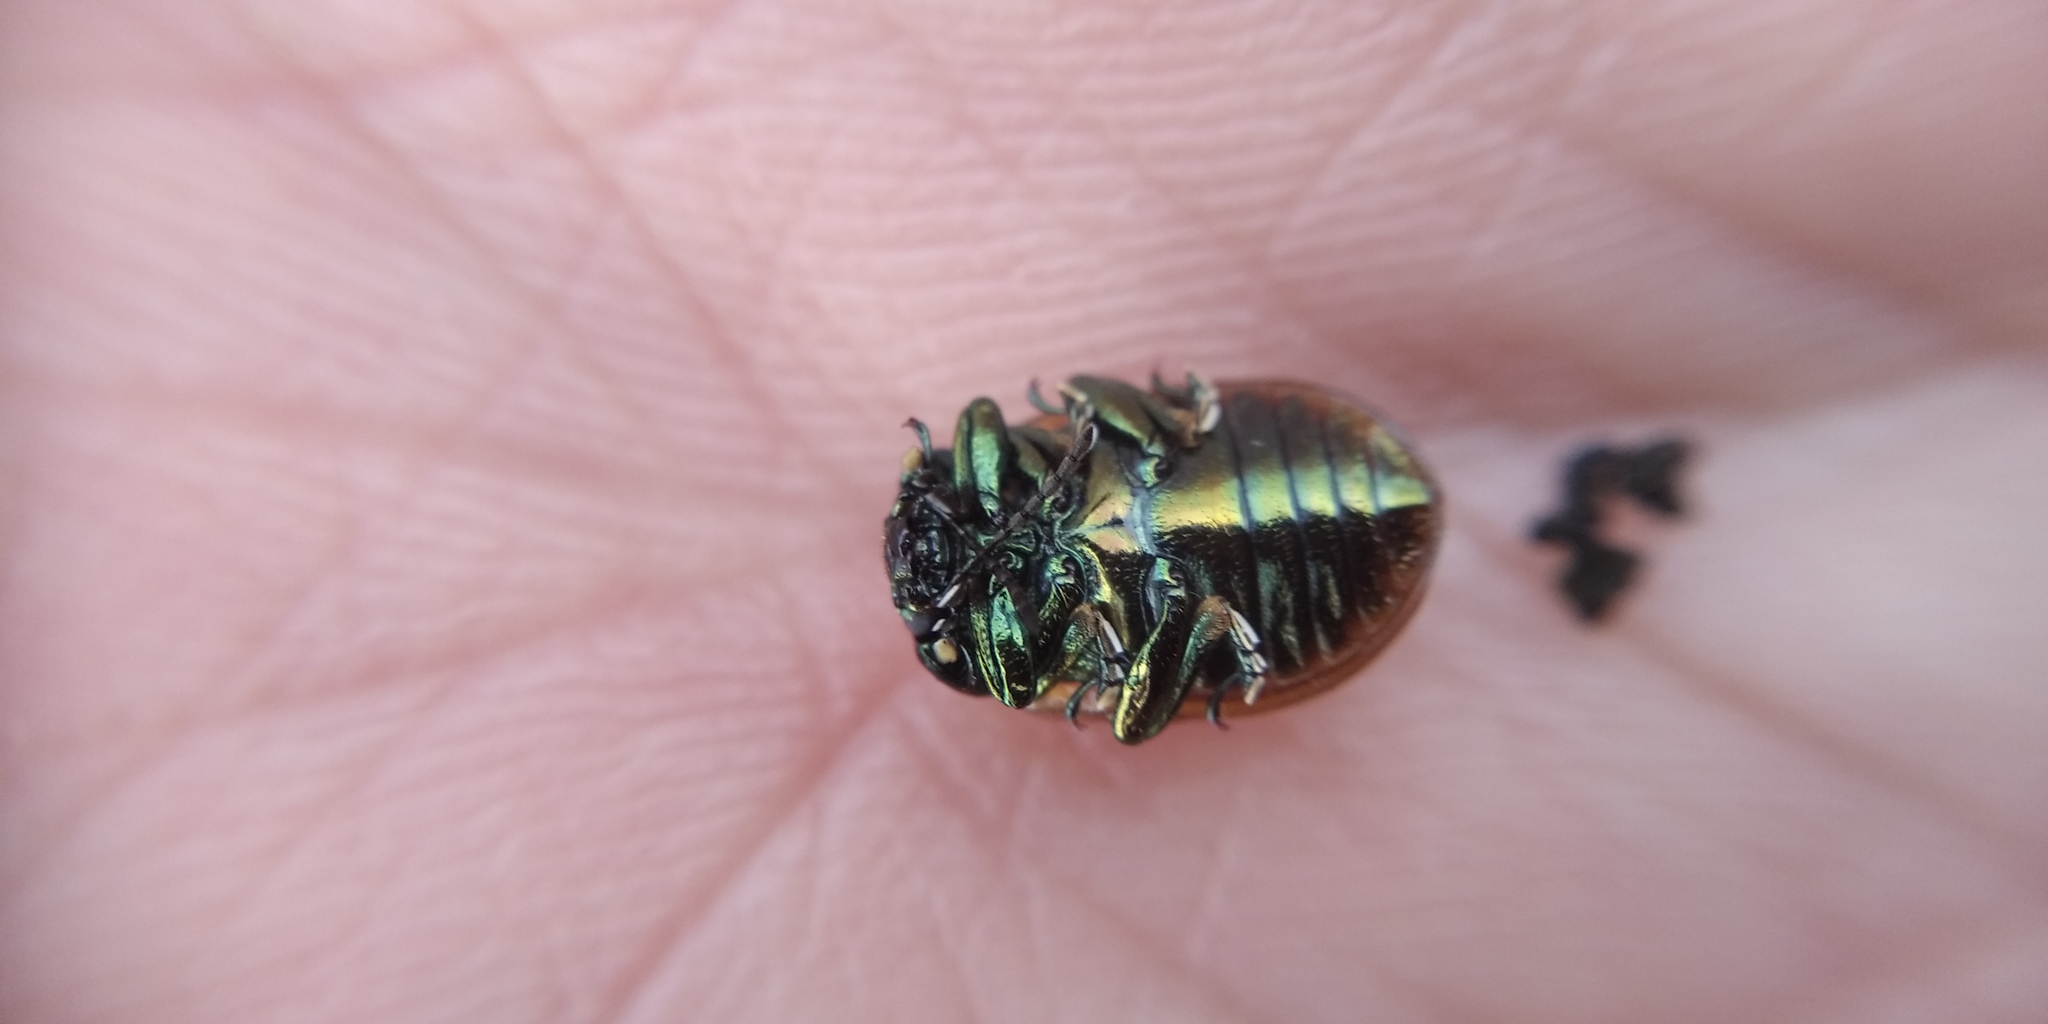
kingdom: Animalia
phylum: Arthropoda
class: Insecta
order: Coleoptera
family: Chrysomelidae
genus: Chrysomela
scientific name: Chrysomela polita
